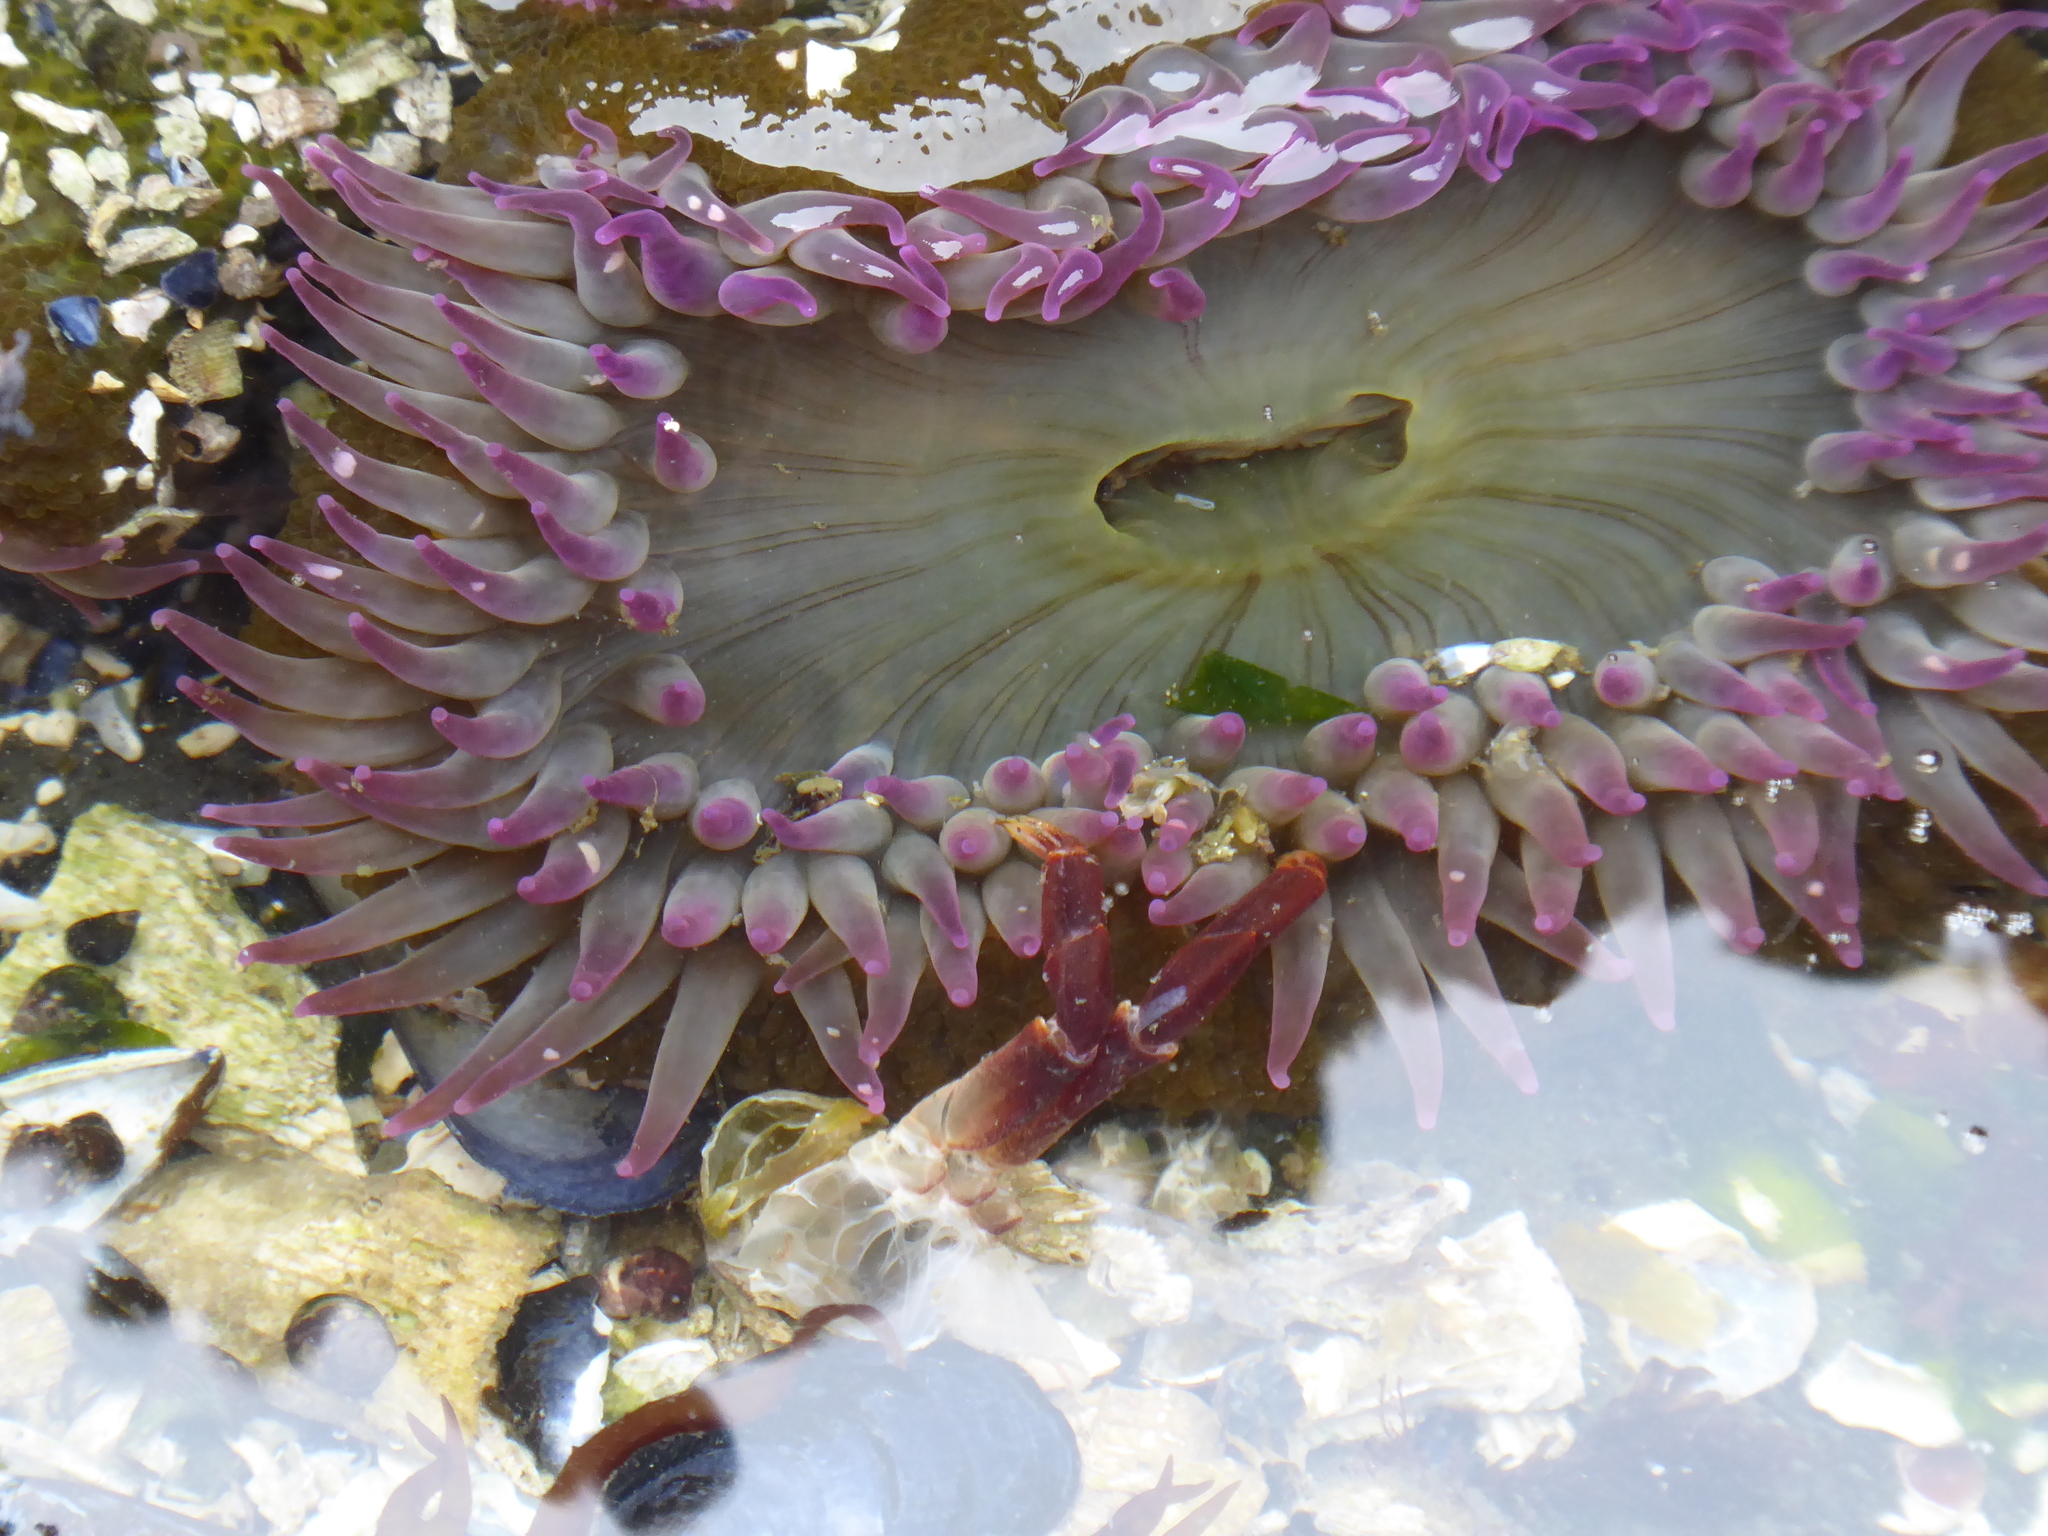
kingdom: Animalia
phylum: Cnidaria
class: Anthozoa
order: Actiniaria
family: Actiniidae
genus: Anthopleura
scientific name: Anthopleura elegantissima
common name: Clonal anemone
